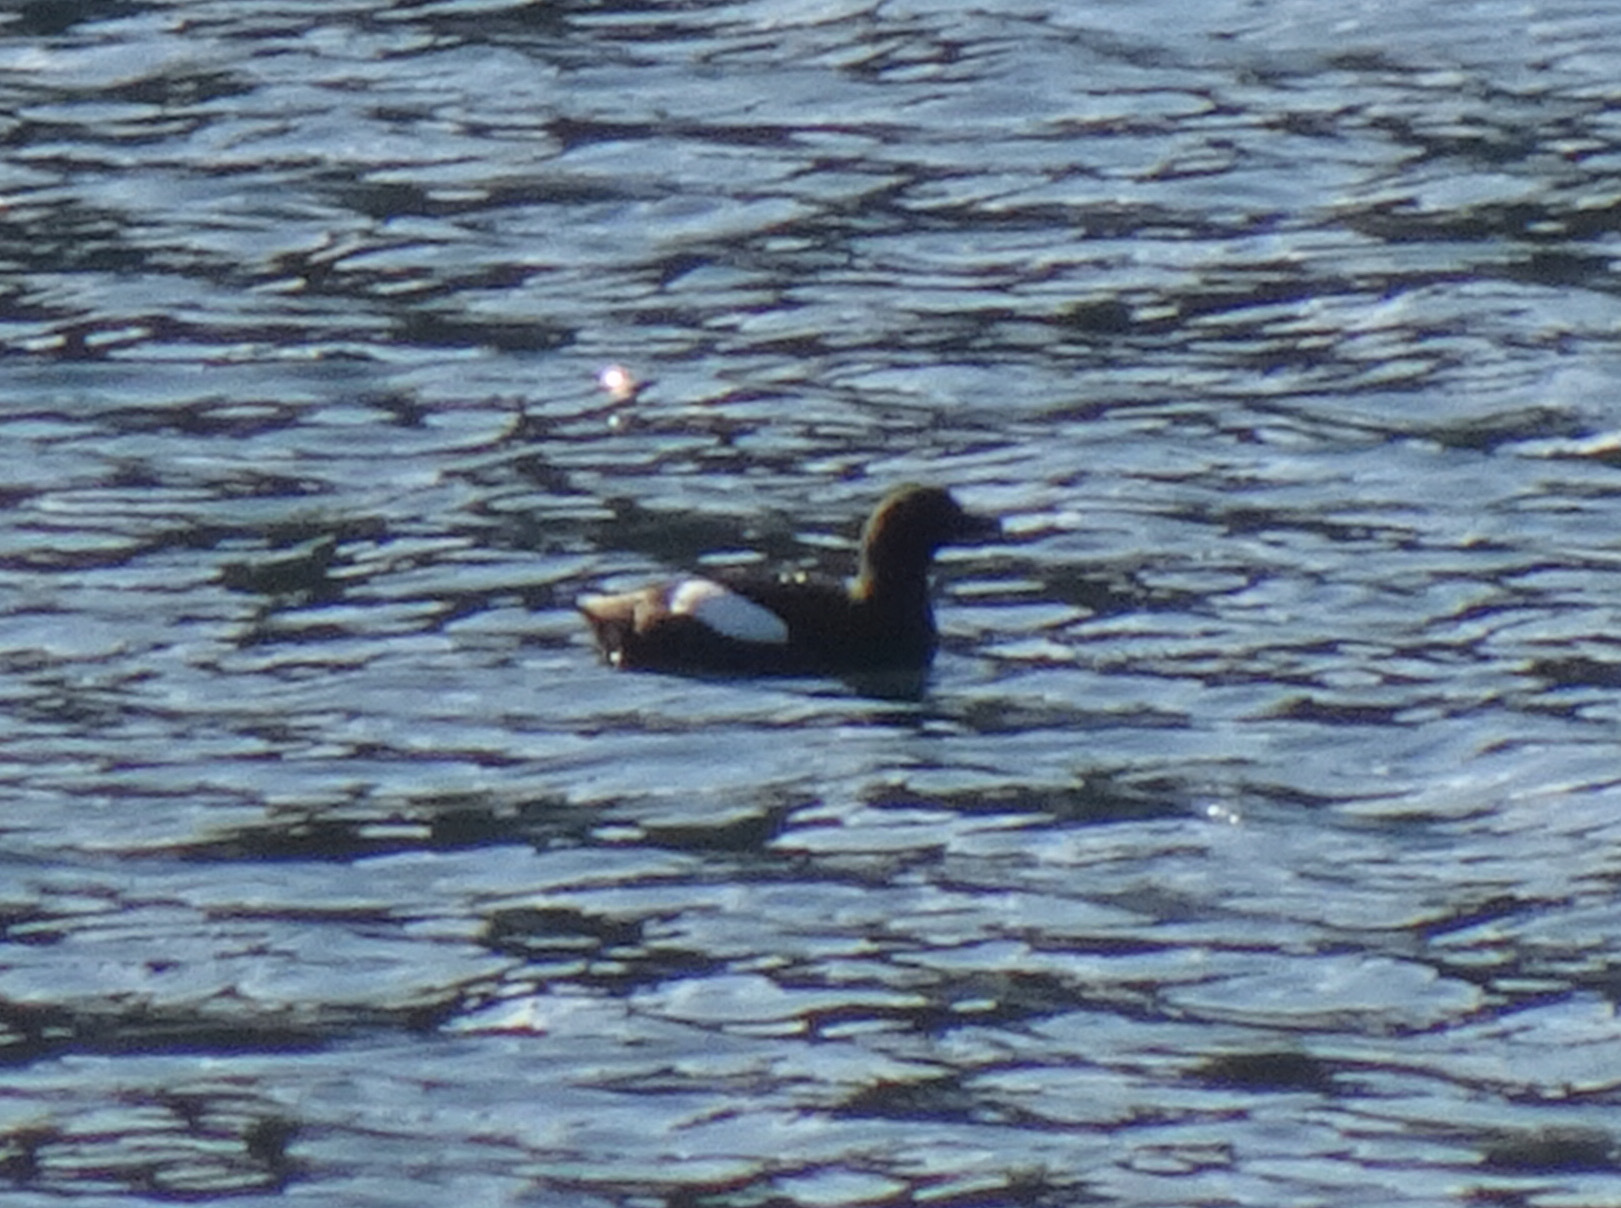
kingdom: Animalia
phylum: Chordata
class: Aves
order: Charadriiformes
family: Alcidae
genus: Cepphus
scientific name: Cepphus grylle
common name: Black guillemot
